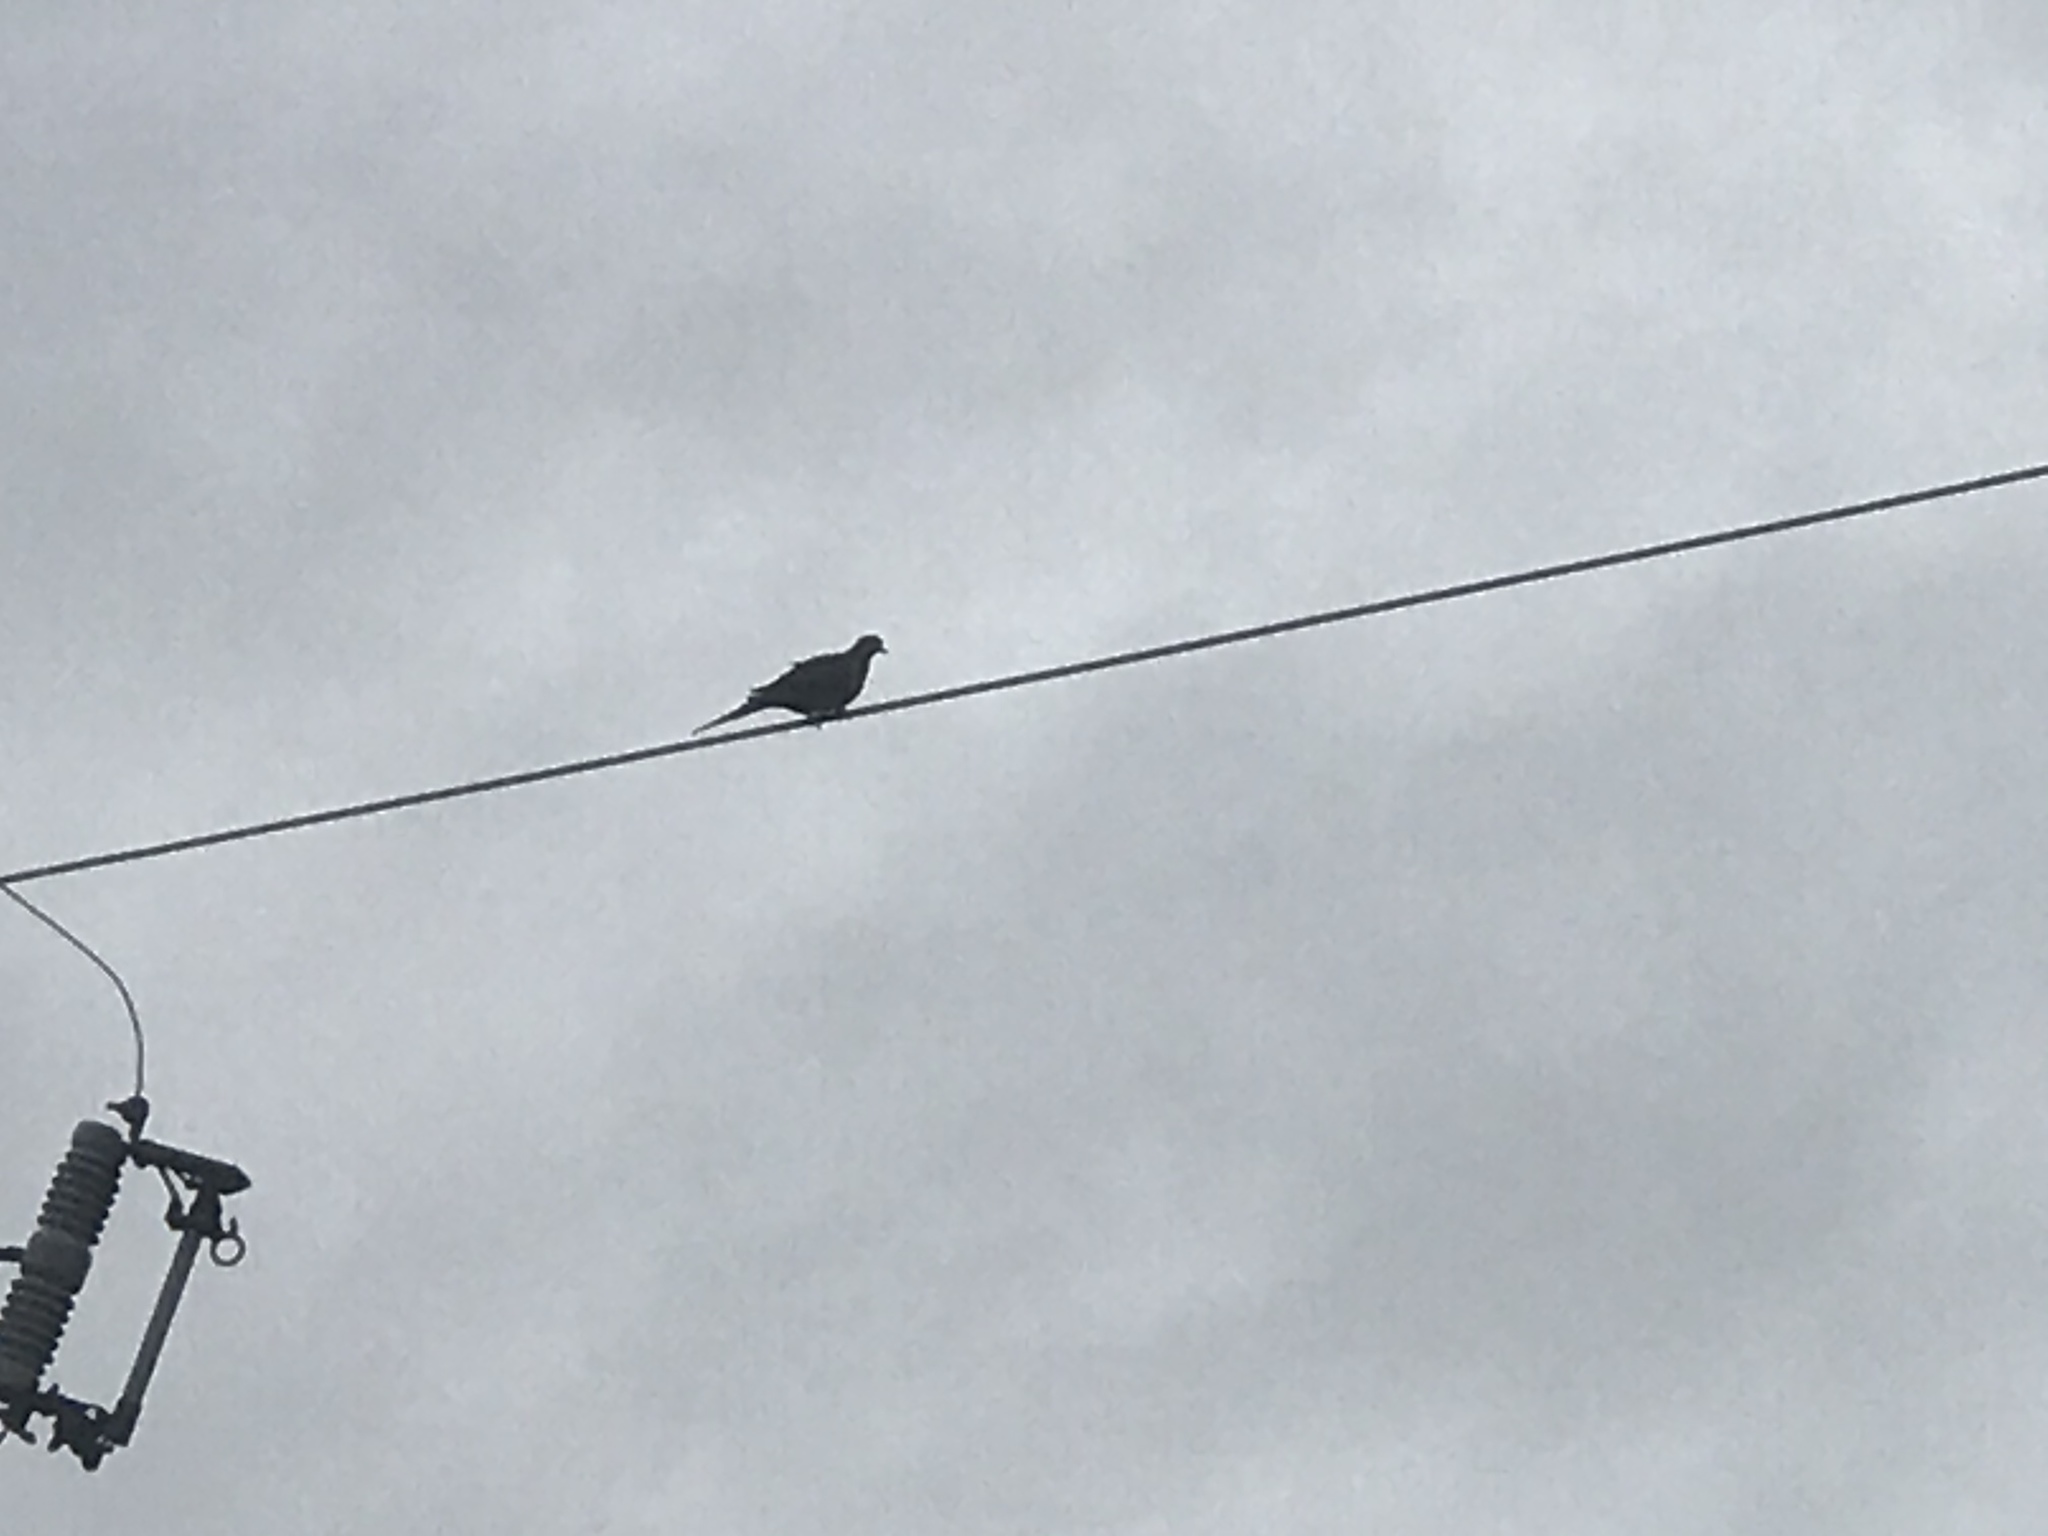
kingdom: Animalia
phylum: Chordata
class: Aves
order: Columbiformes
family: Columbidae
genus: Zenaida
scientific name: Zenaida macroura
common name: Mourning dove
